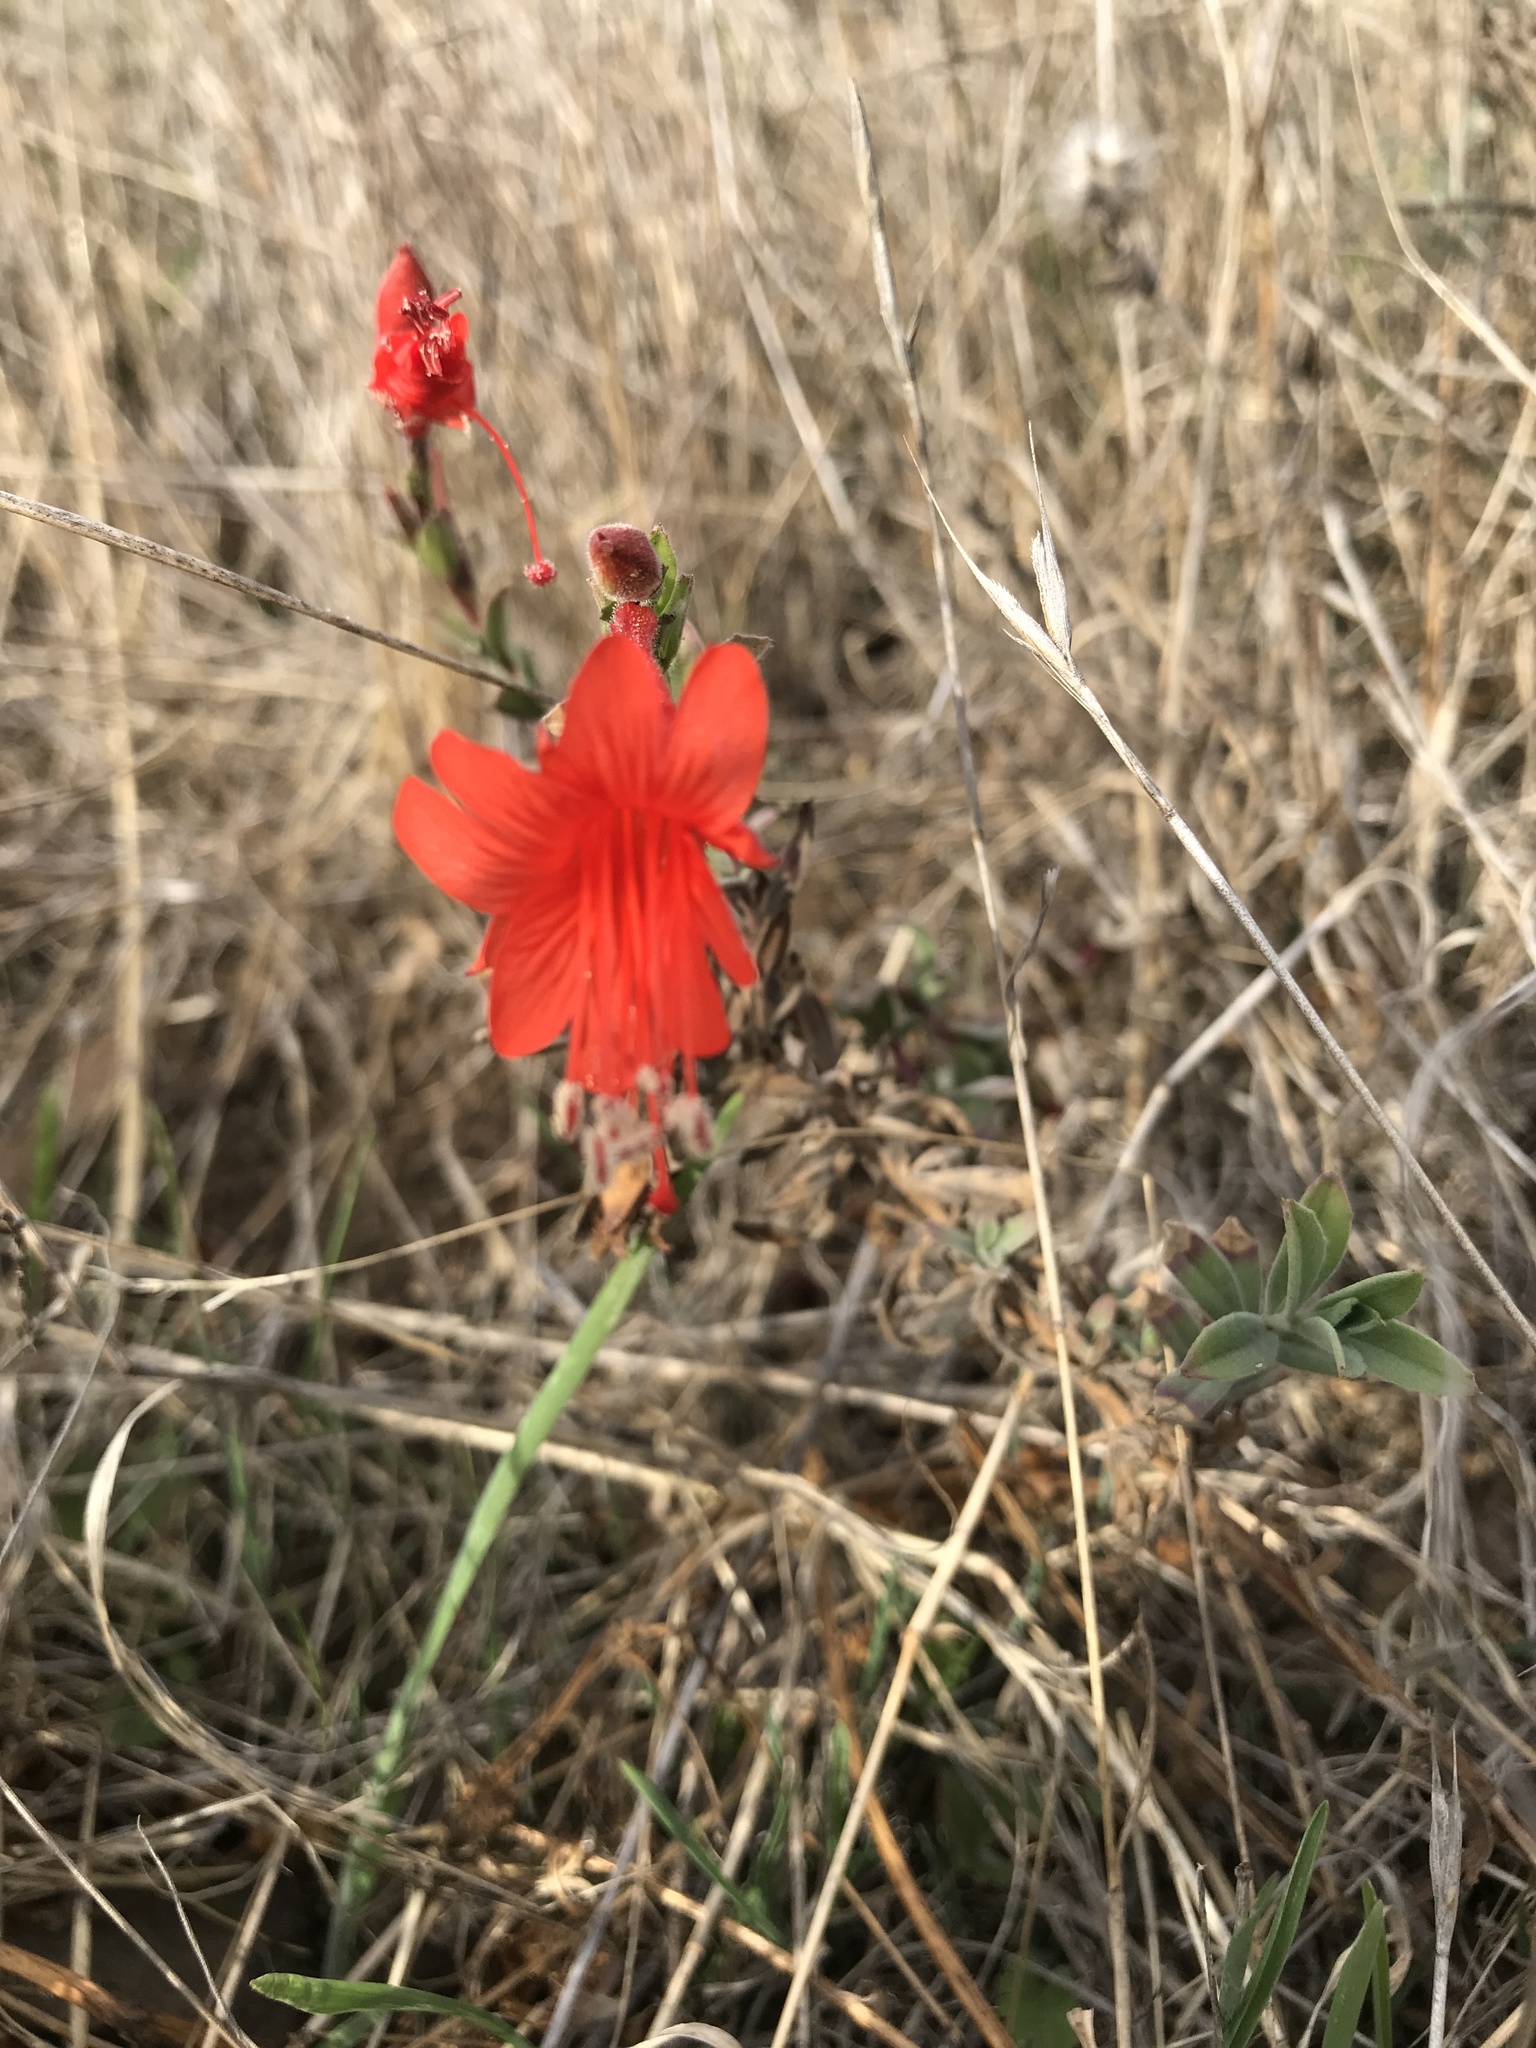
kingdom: Plantae
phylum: Tracheophyta
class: Magnoliopsida
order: Myrtales
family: Onagraceae
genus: Epilobium
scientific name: Epilobium canum
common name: California-fuchsia
